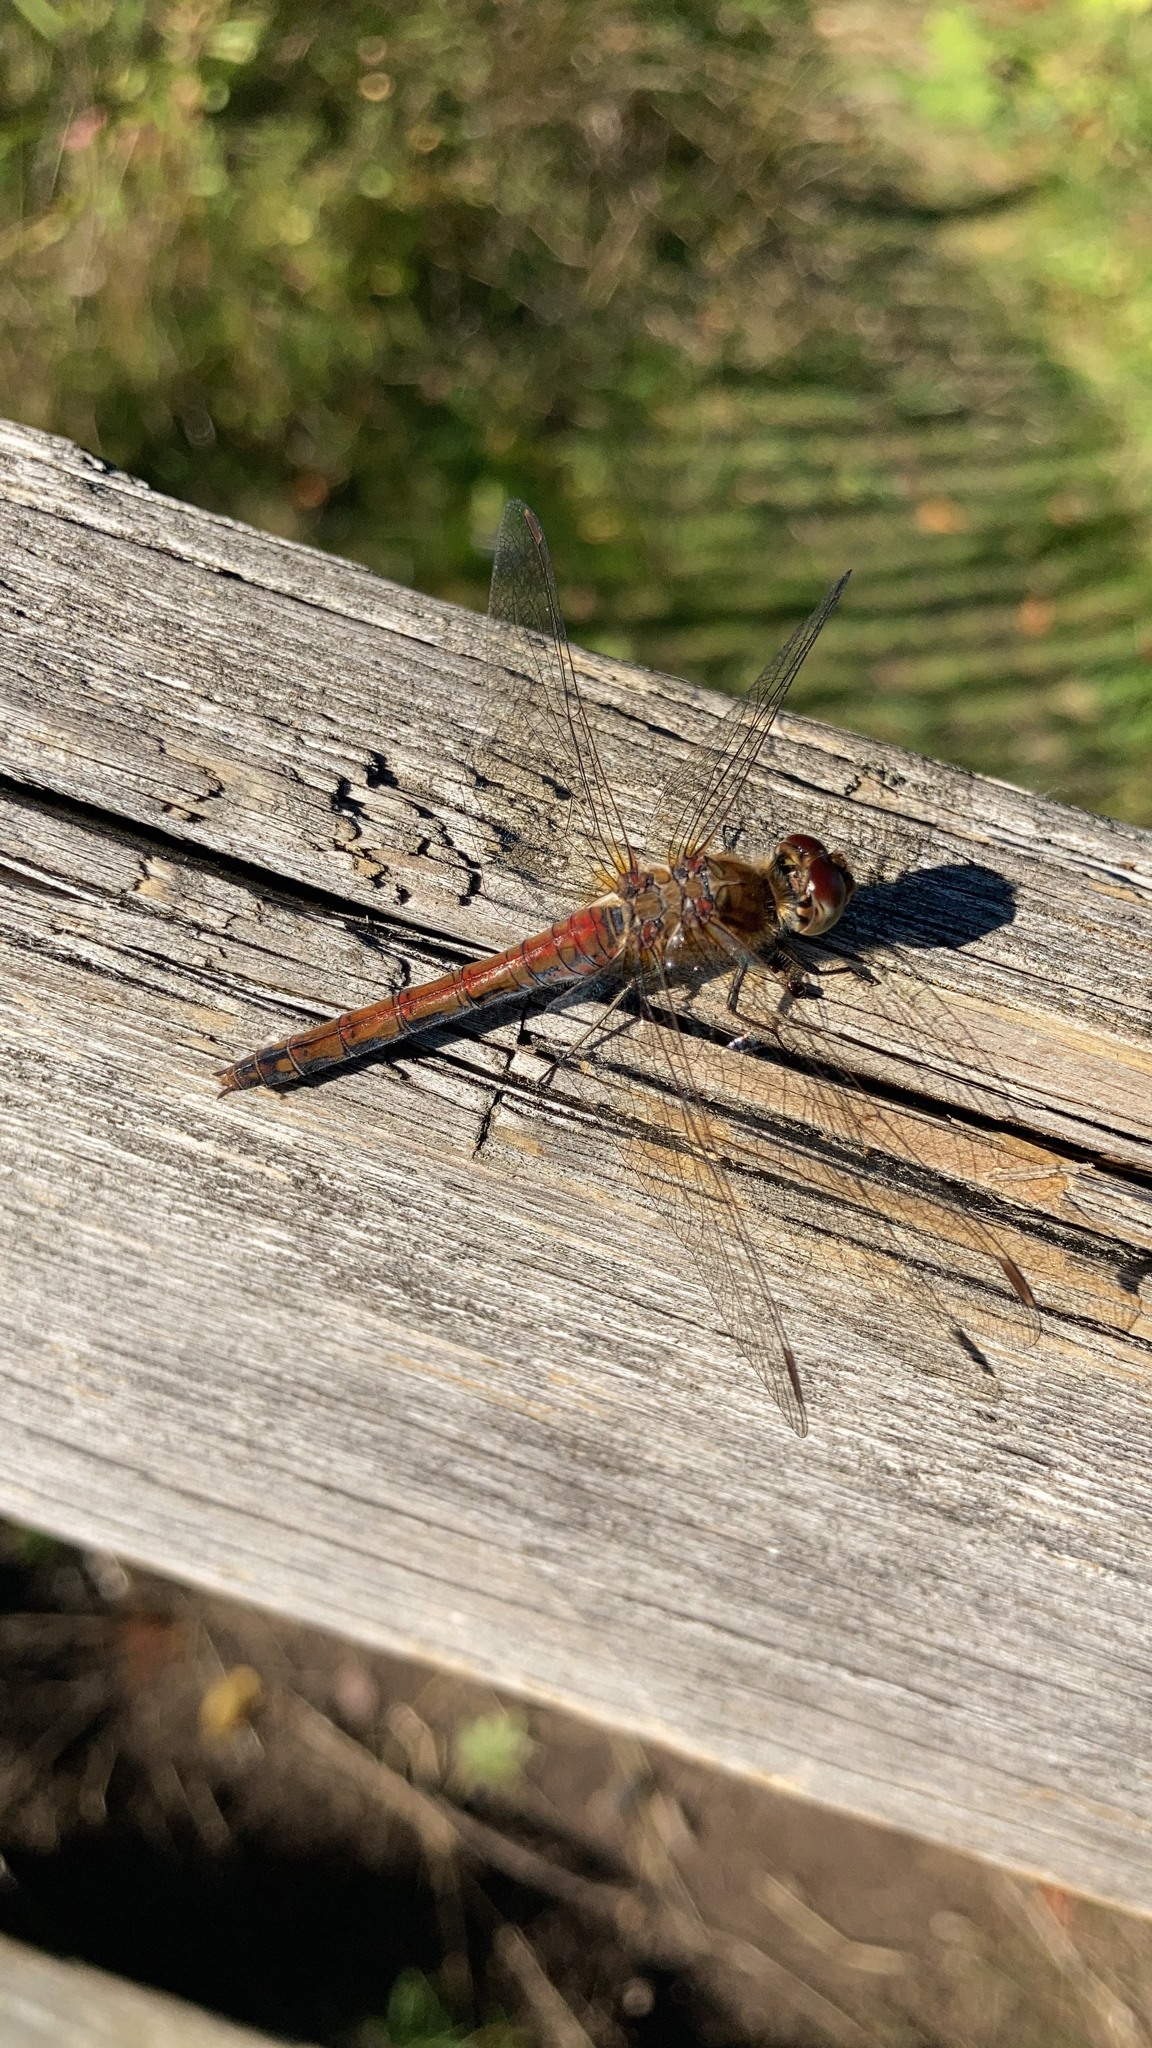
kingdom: Animalia
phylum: Arthropoda
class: Insecta
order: Odonata
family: Libellulidae
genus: Sympetrum
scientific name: Sympetrum vulgatum
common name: Vagrant darter
